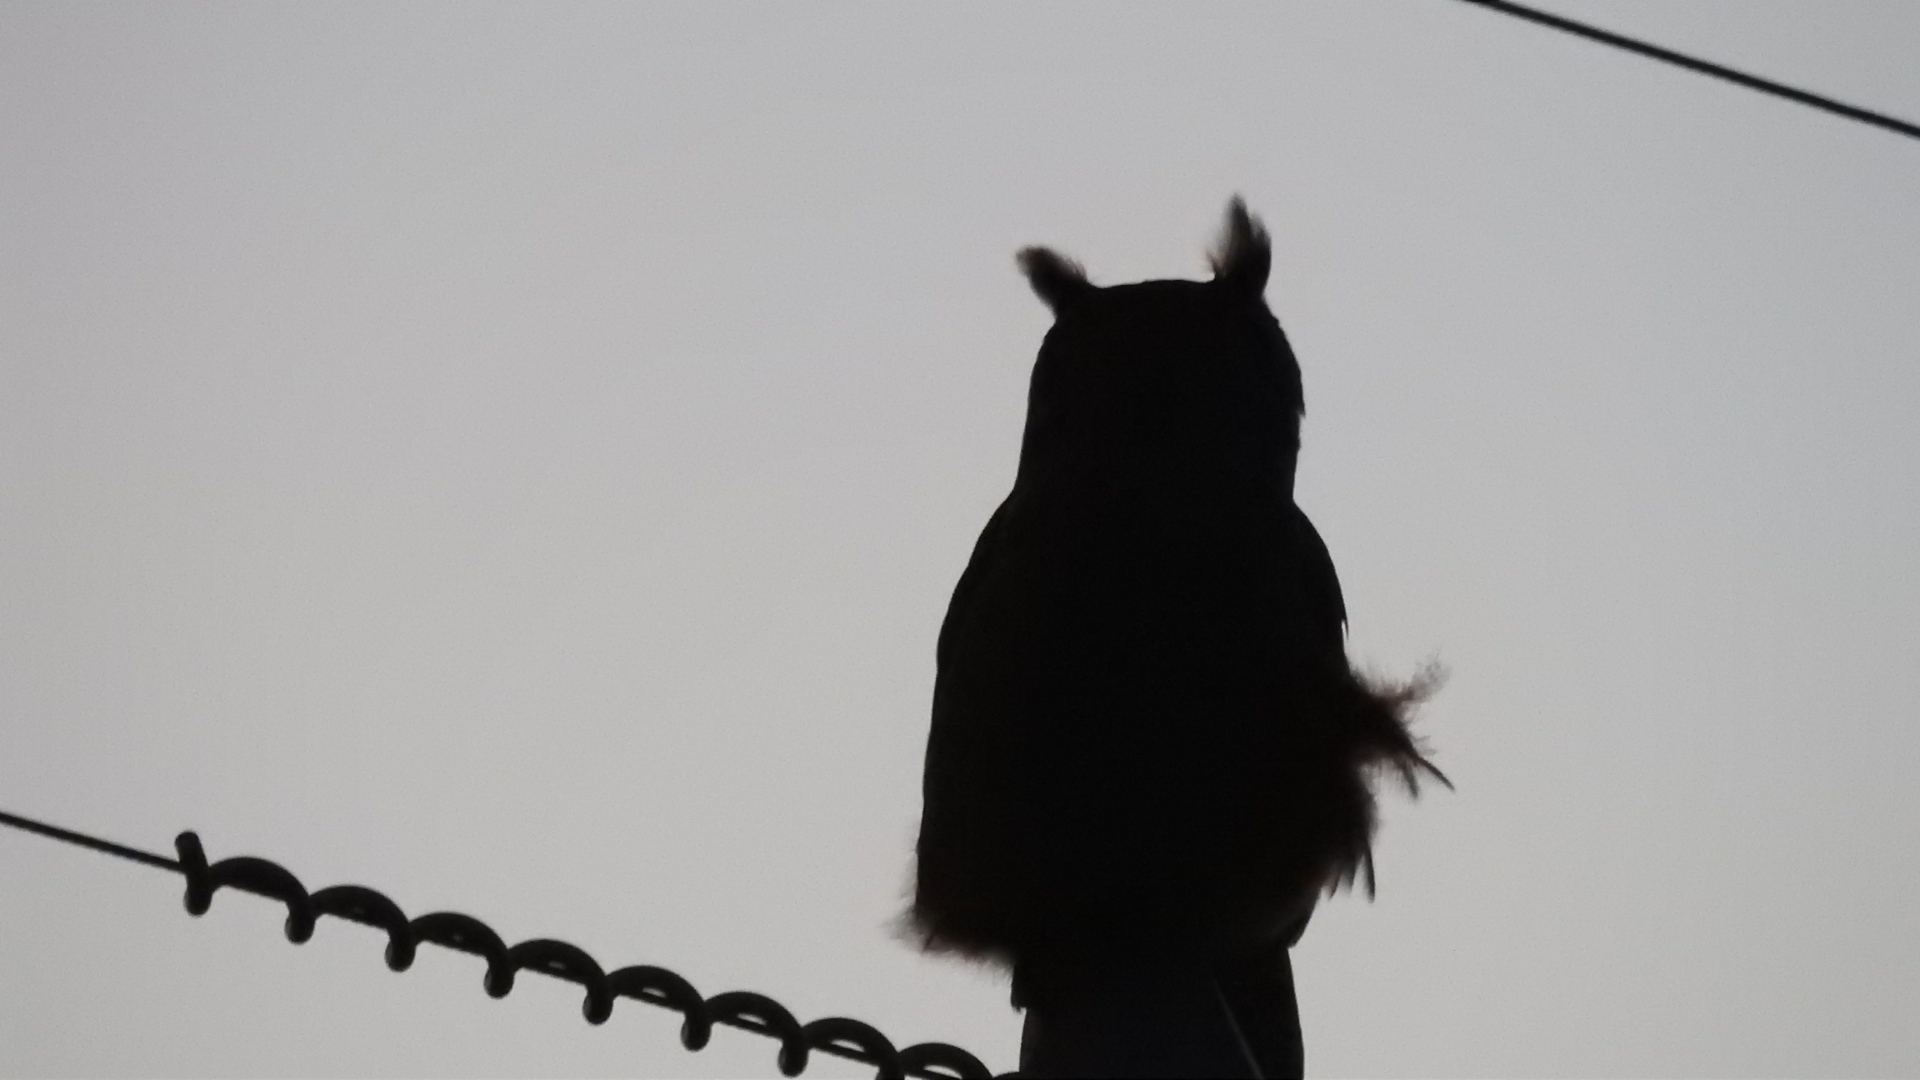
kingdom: Animalia
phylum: Chordata
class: Aves
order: Strigiformes
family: Strigidae
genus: Bubo
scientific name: Bubo virginianus
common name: Great horned owl
